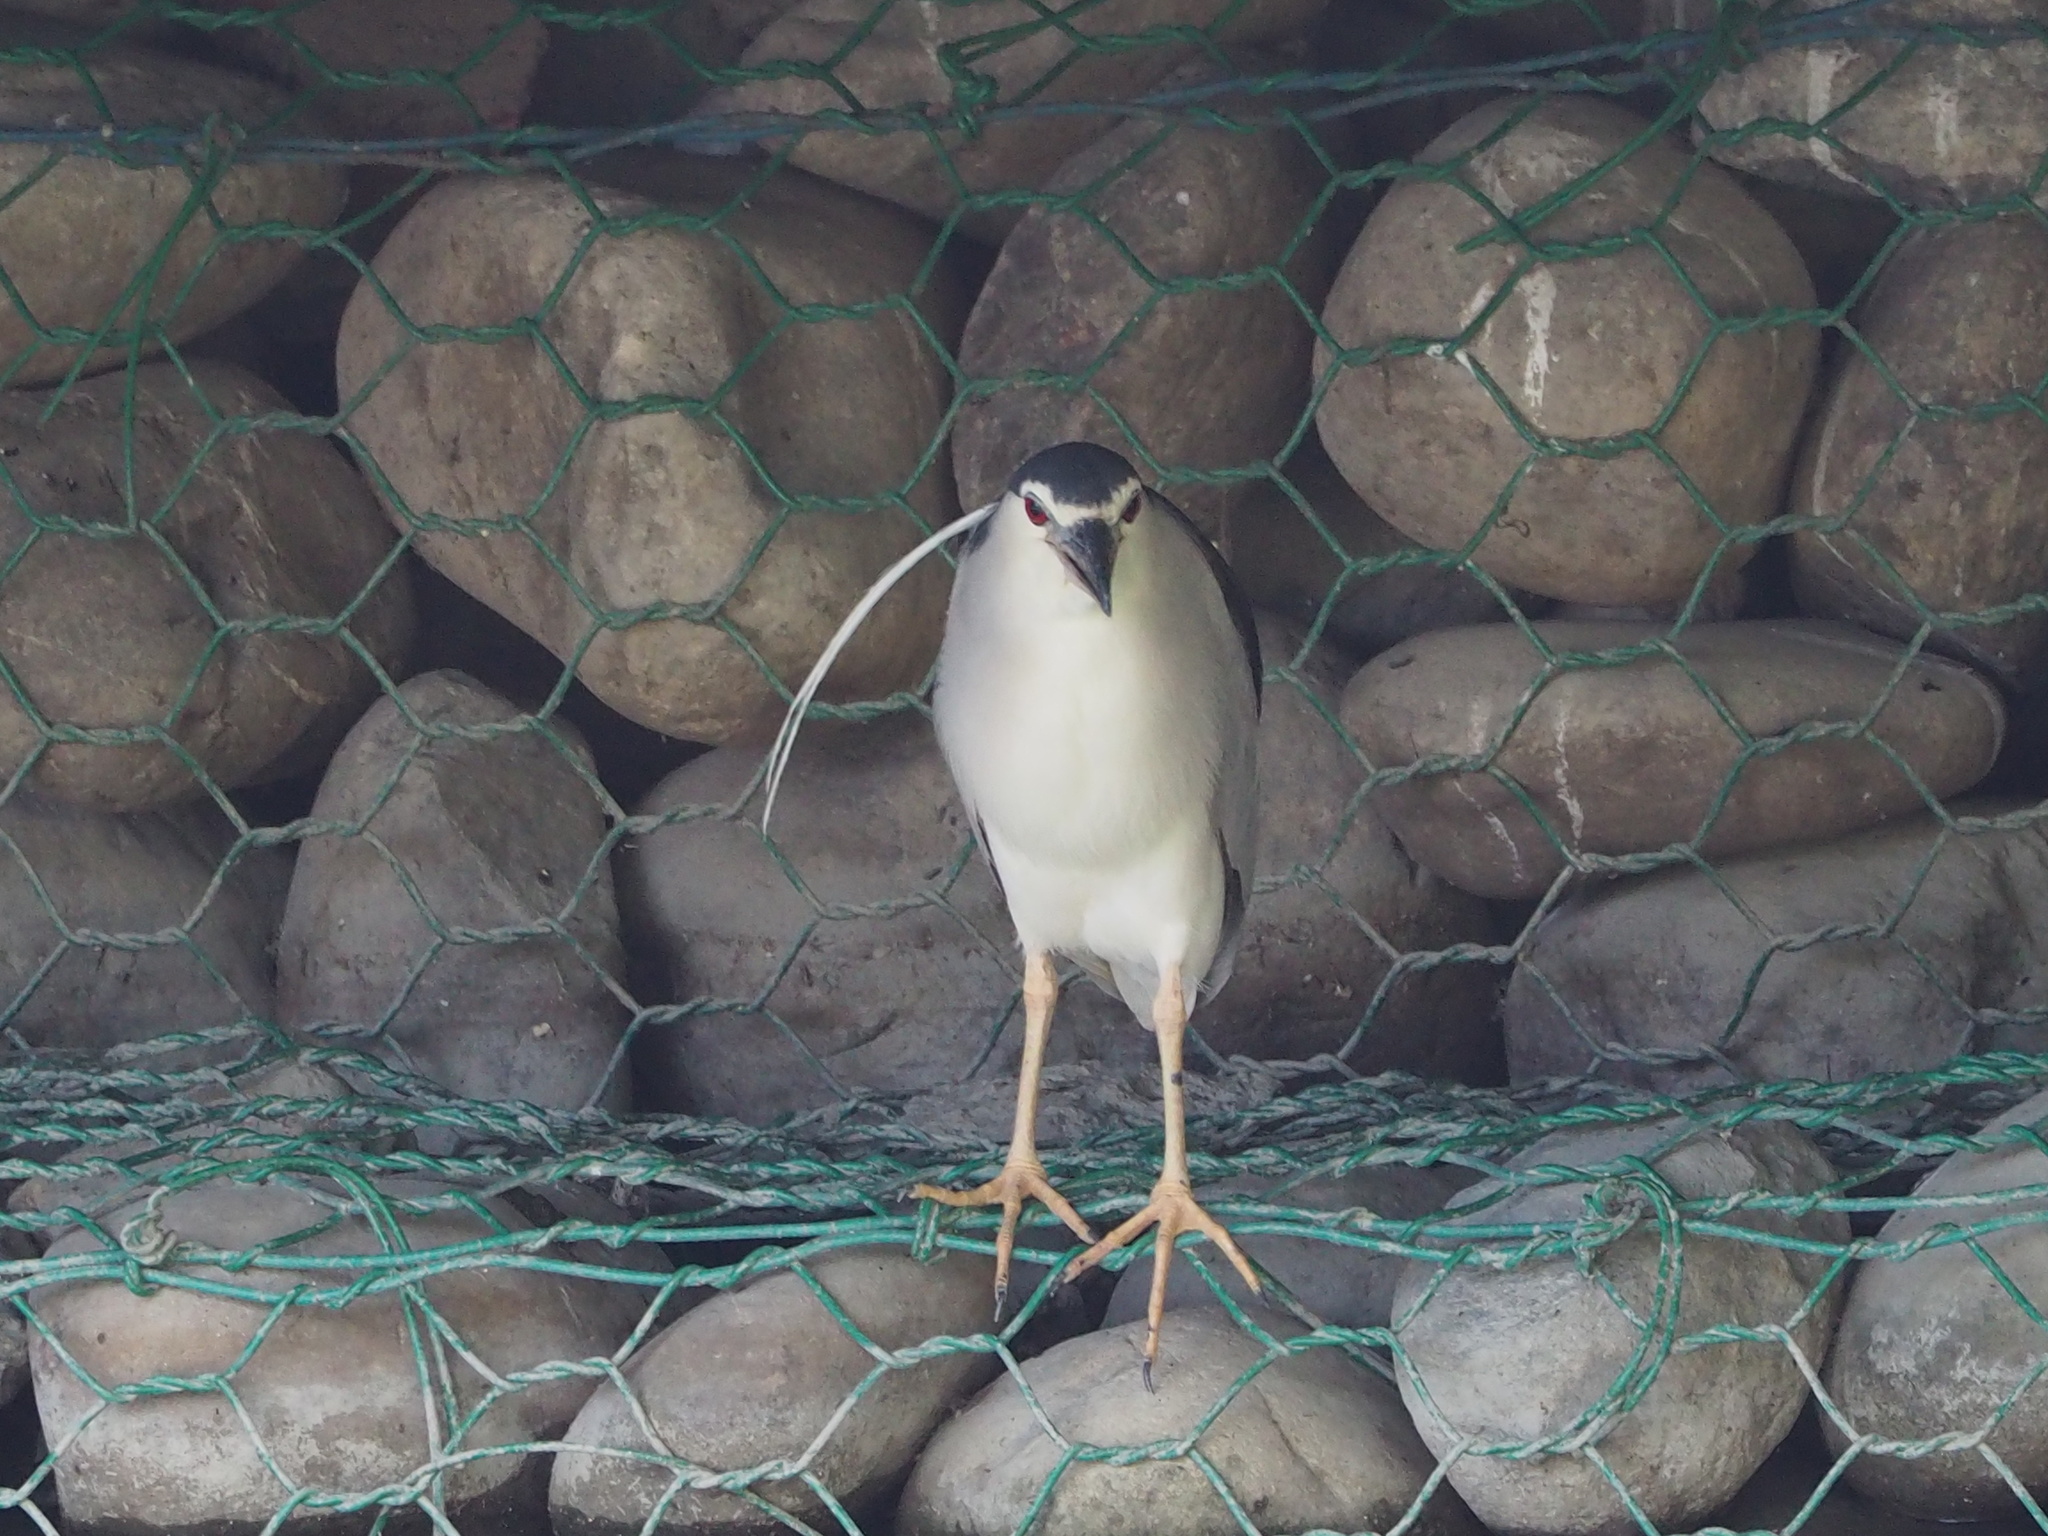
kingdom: Animalia
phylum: Chordata
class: Aves
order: Pelecaniformes
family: Ardeidae
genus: Nycticorax
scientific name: Nycticorax nycticorax
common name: Black-crowned night heron
